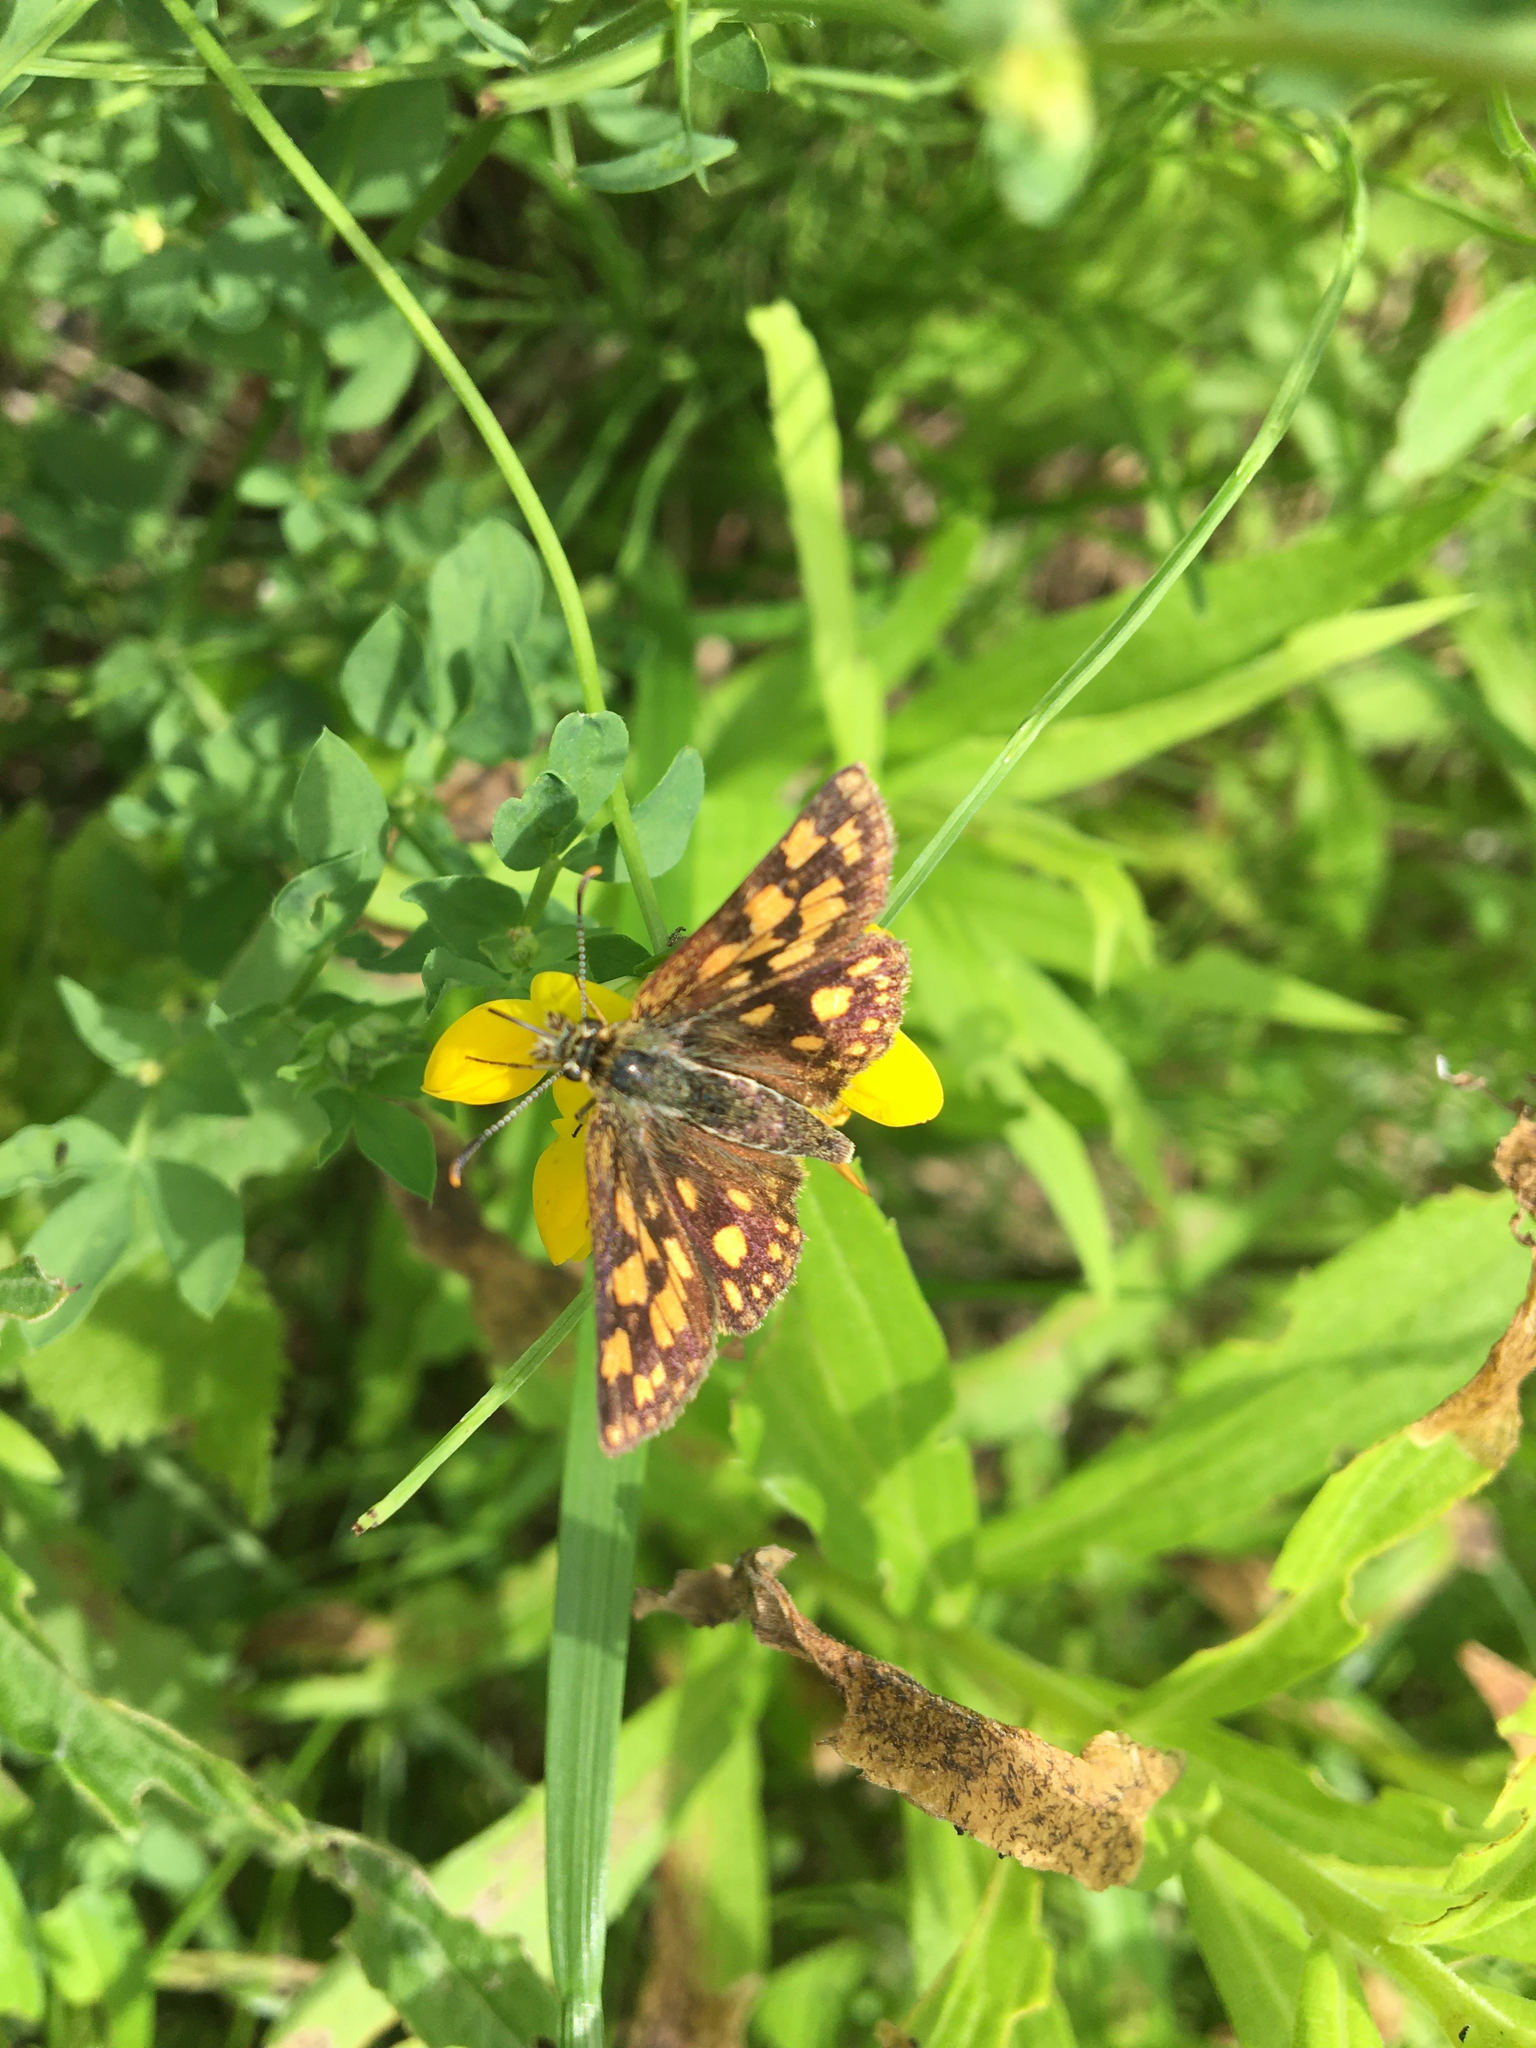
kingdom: Animalia
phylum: Arthropoda
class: Insecta
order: Lepidoptera
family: Hesperiidae
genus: Carterocephalus
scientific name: Carterocephalus mandan
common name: Arctic skipperling
